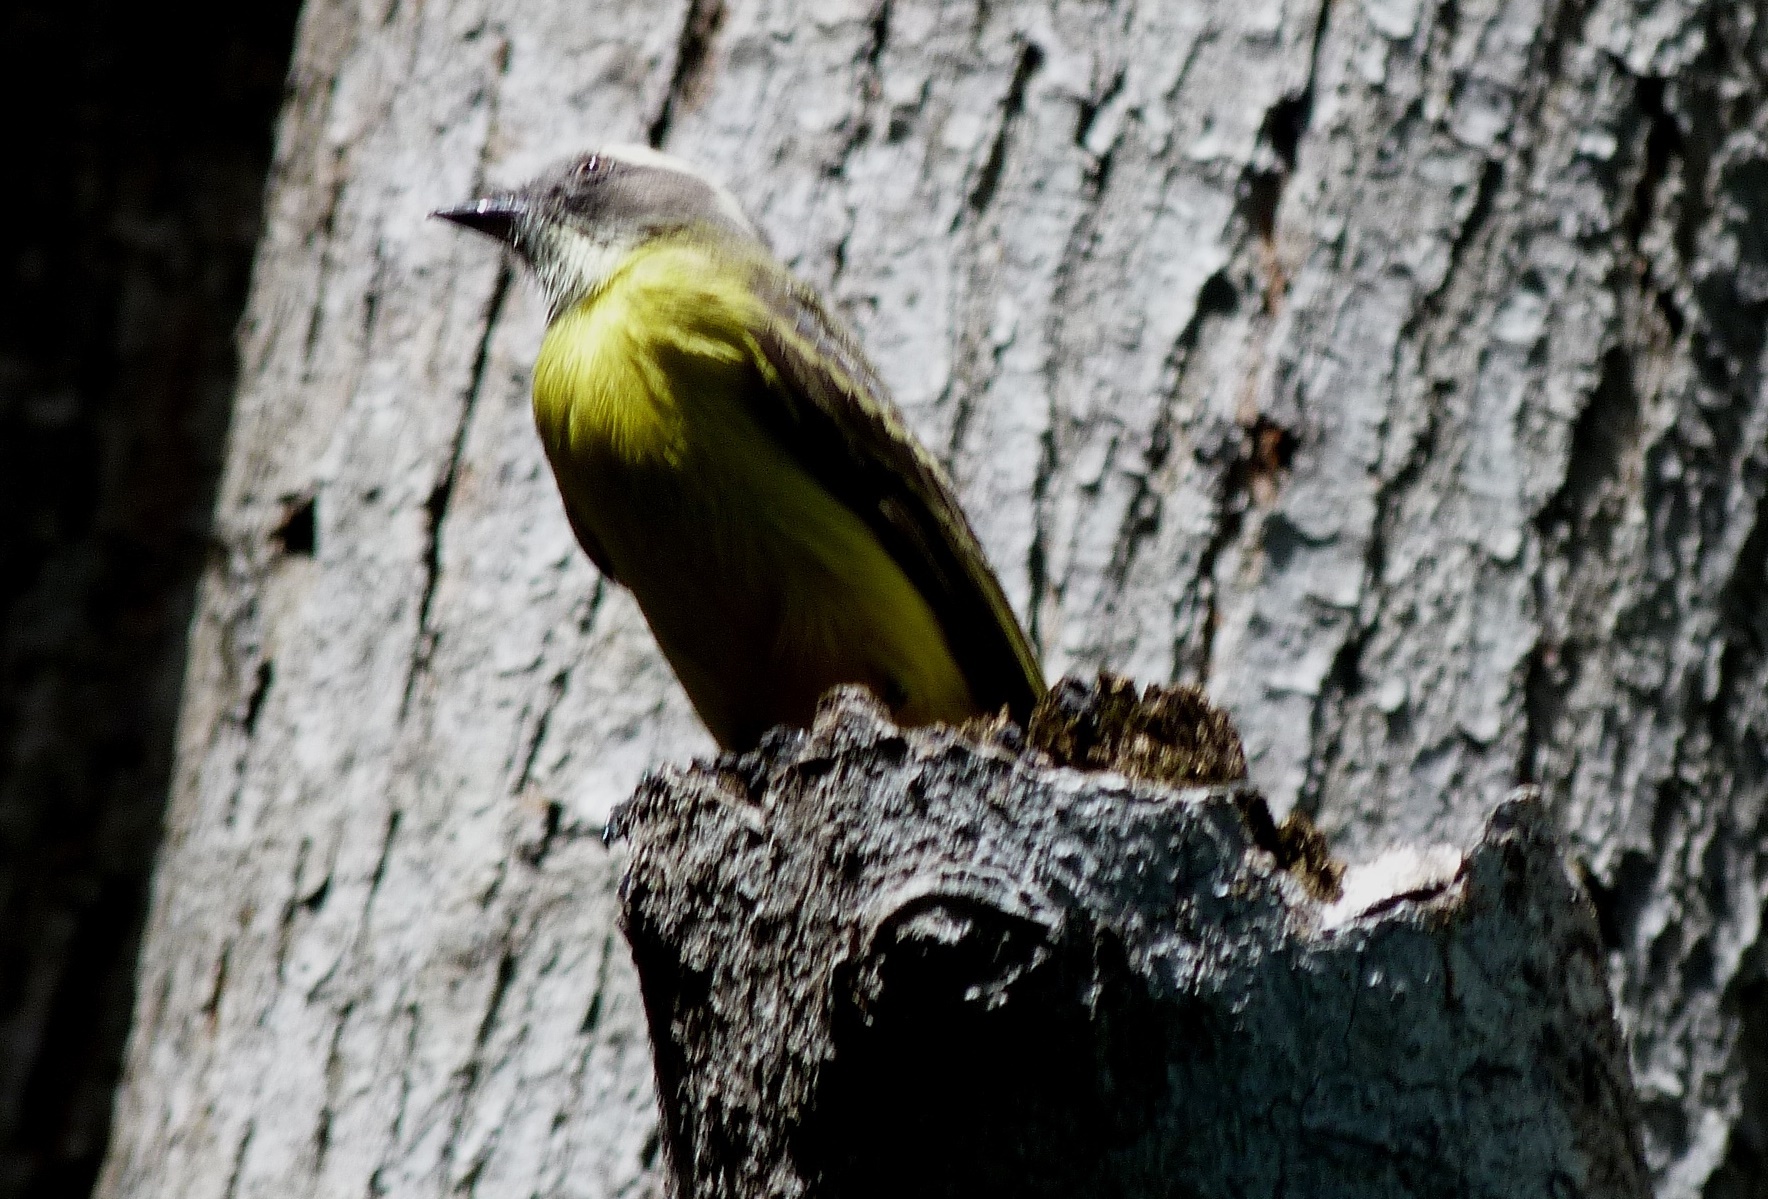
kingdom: Animalia
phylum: Chordata
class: Aves
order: Passeriformes
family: Tyrannidae
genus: Myiozetetes
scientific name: Myiozetetes similis
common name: Social flycatcher
